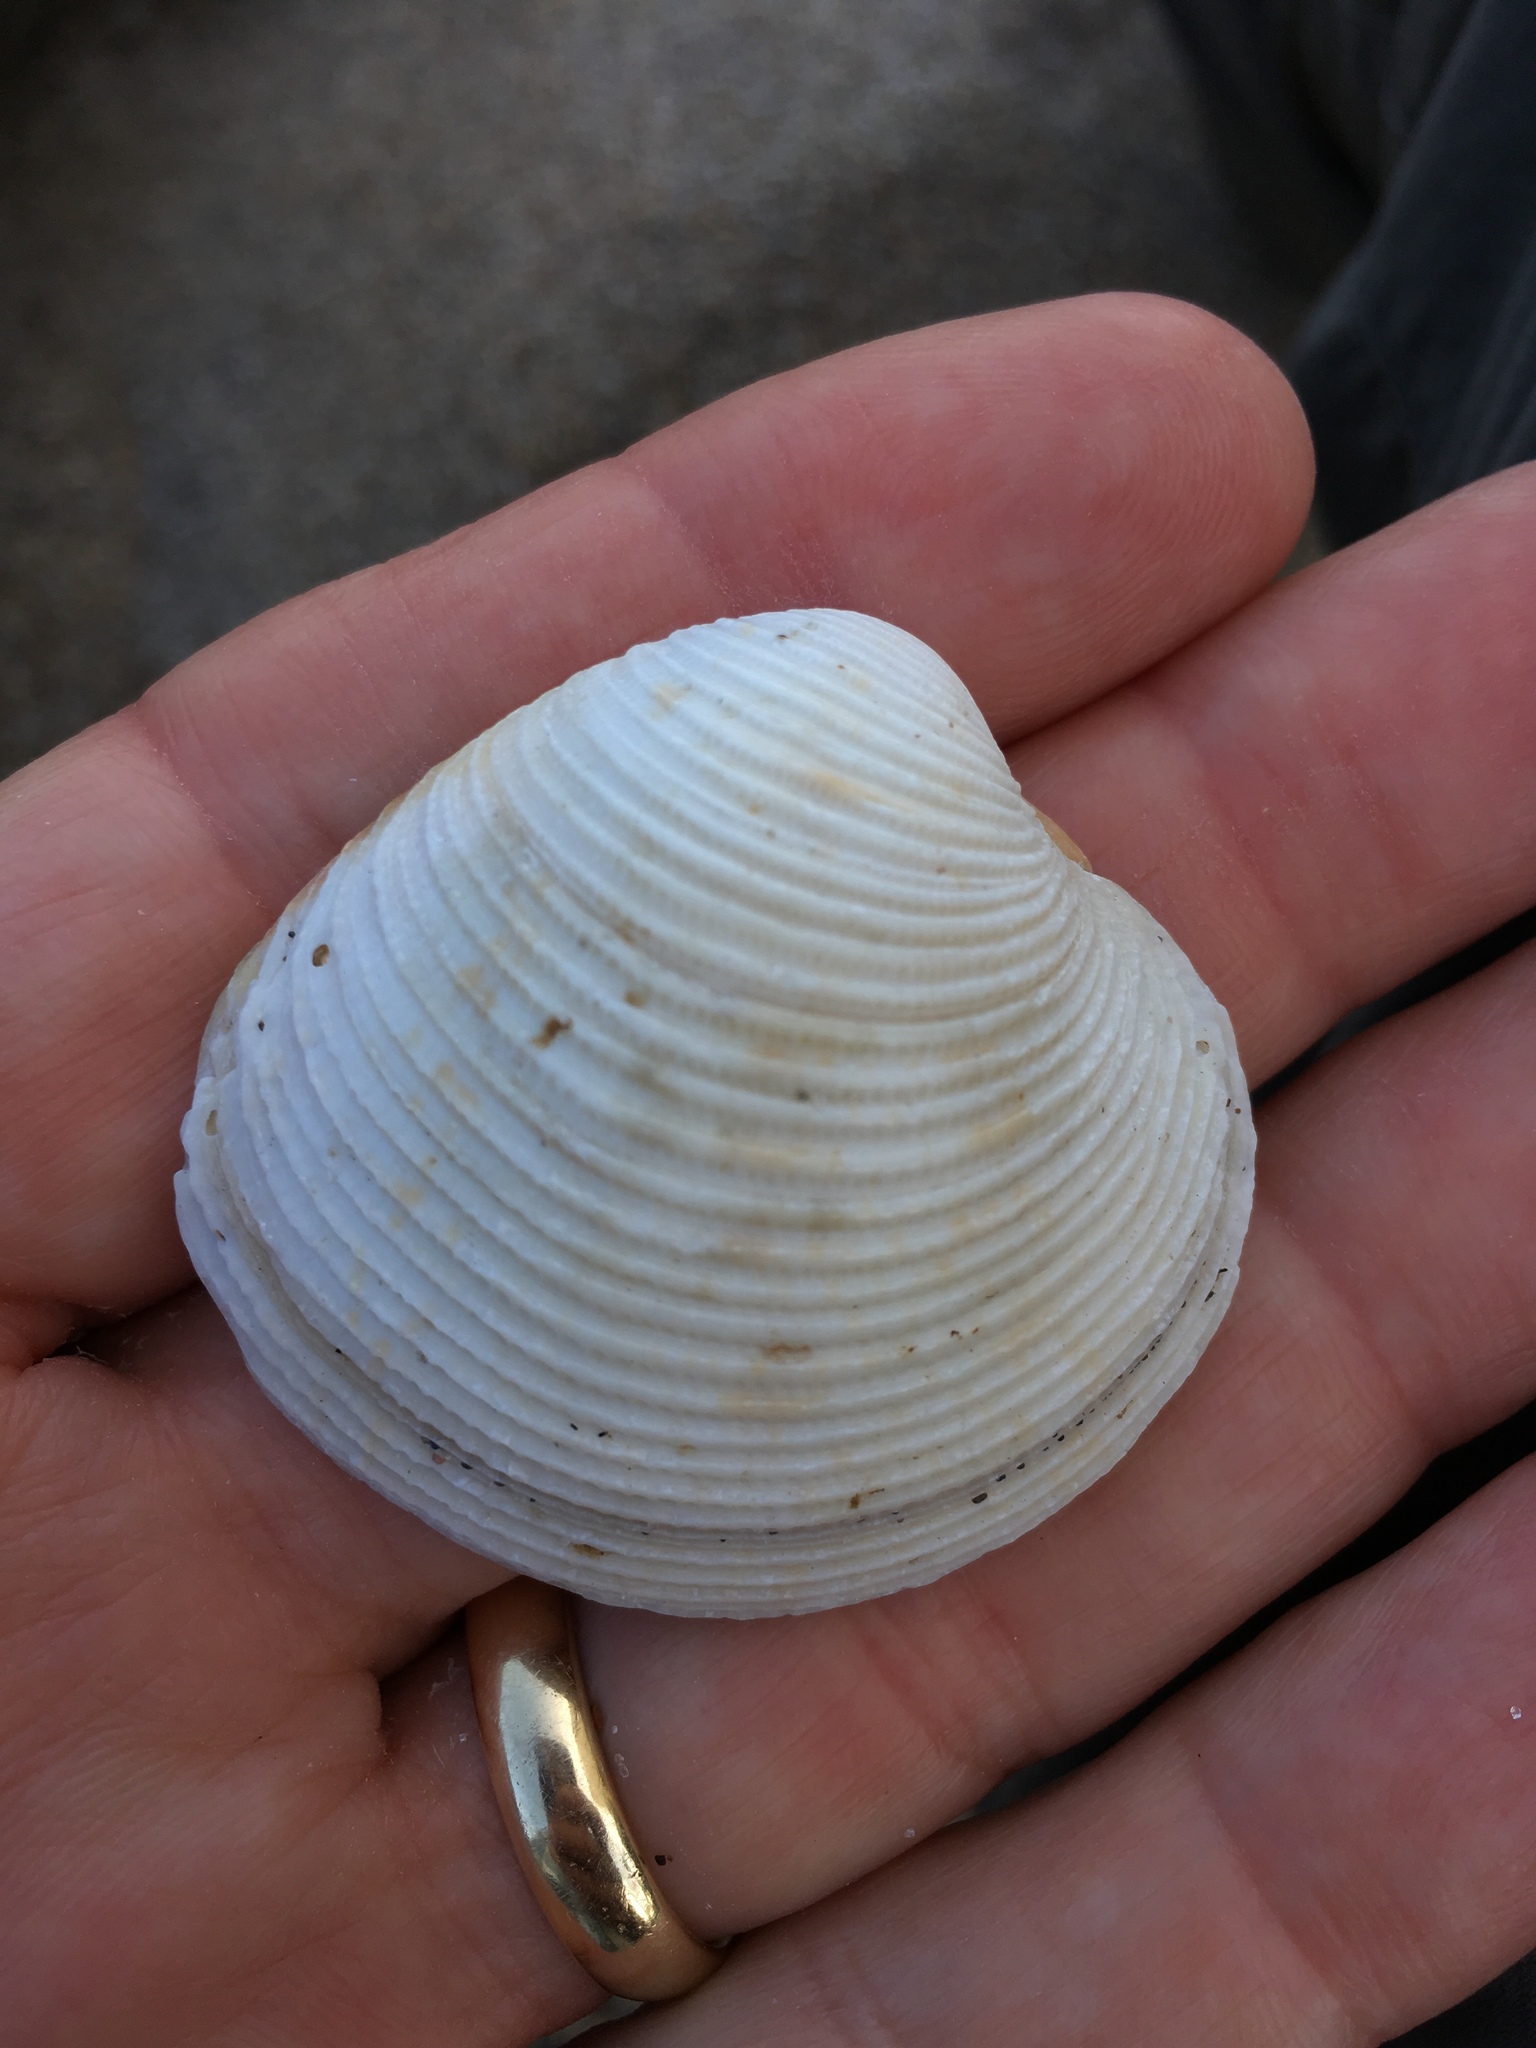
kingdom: Animalia
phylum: Mollusca
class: Bivalvia
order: Venerida
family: Veneridae
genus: Chionopsis
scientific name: Chionopsis intapurpurea
